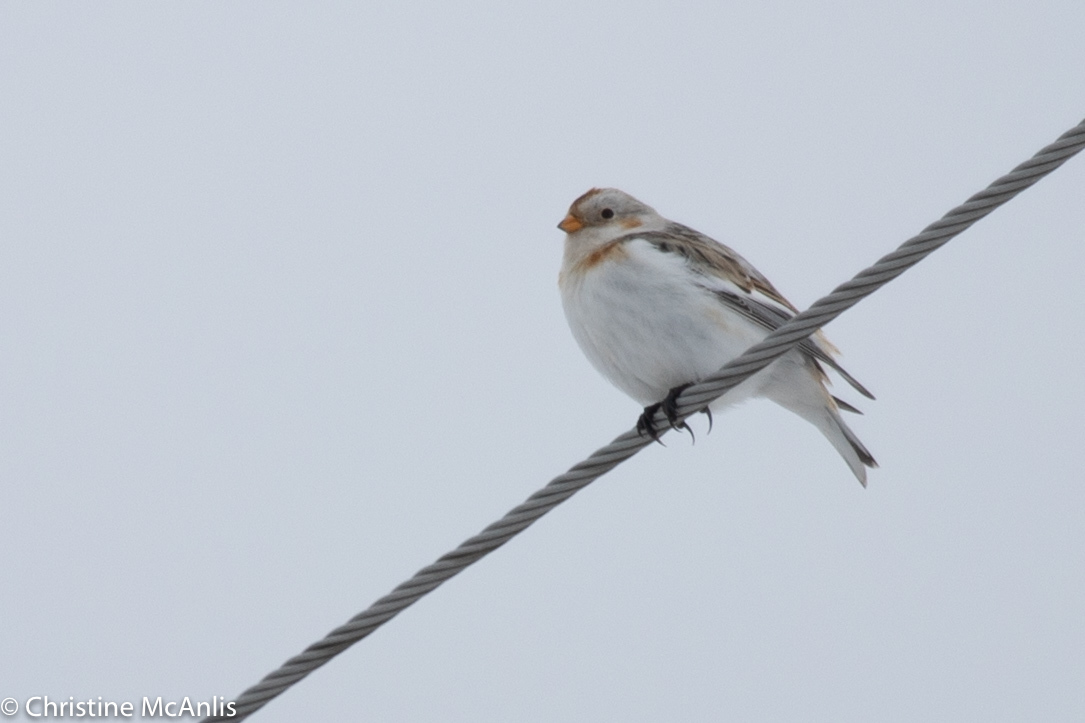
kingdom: Animalia
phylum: Chordata
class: Aves
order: Passeriformes
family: Calcariidae
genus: Plectrophenax
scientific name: Plectrophenax nivalis
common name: Snow bunting
